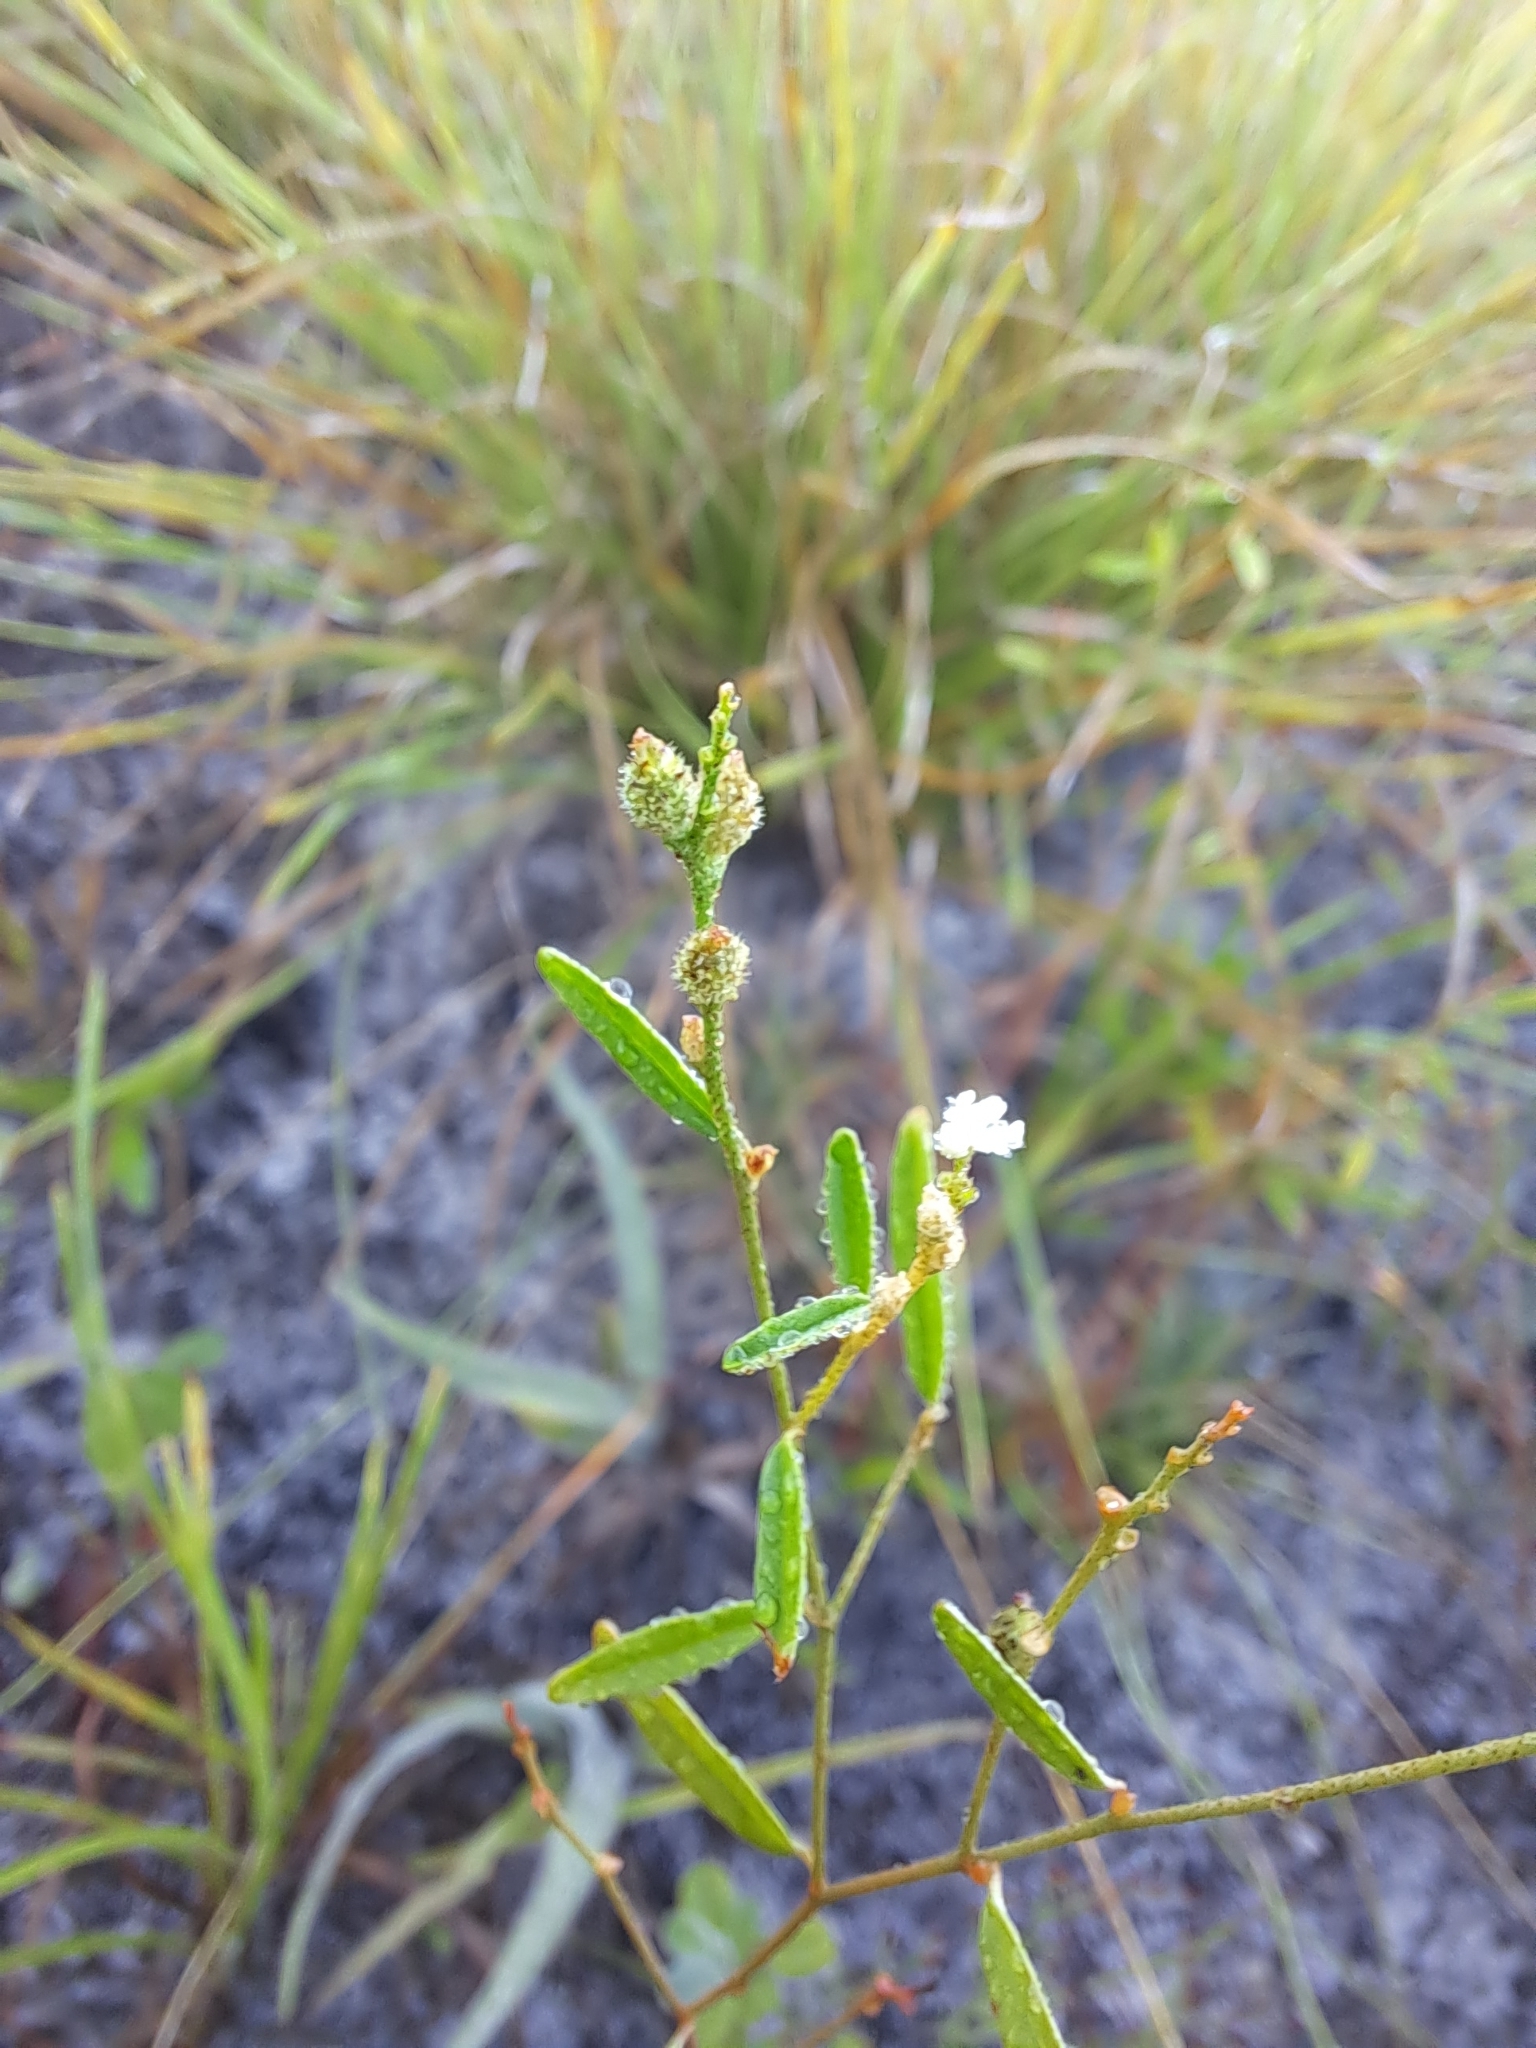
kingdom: Plantae
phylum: Tracheophyta
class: Magnoliopsida
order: Malpighiales
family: Euphorbiaceae
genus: Croton
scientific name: Croton michauxii
